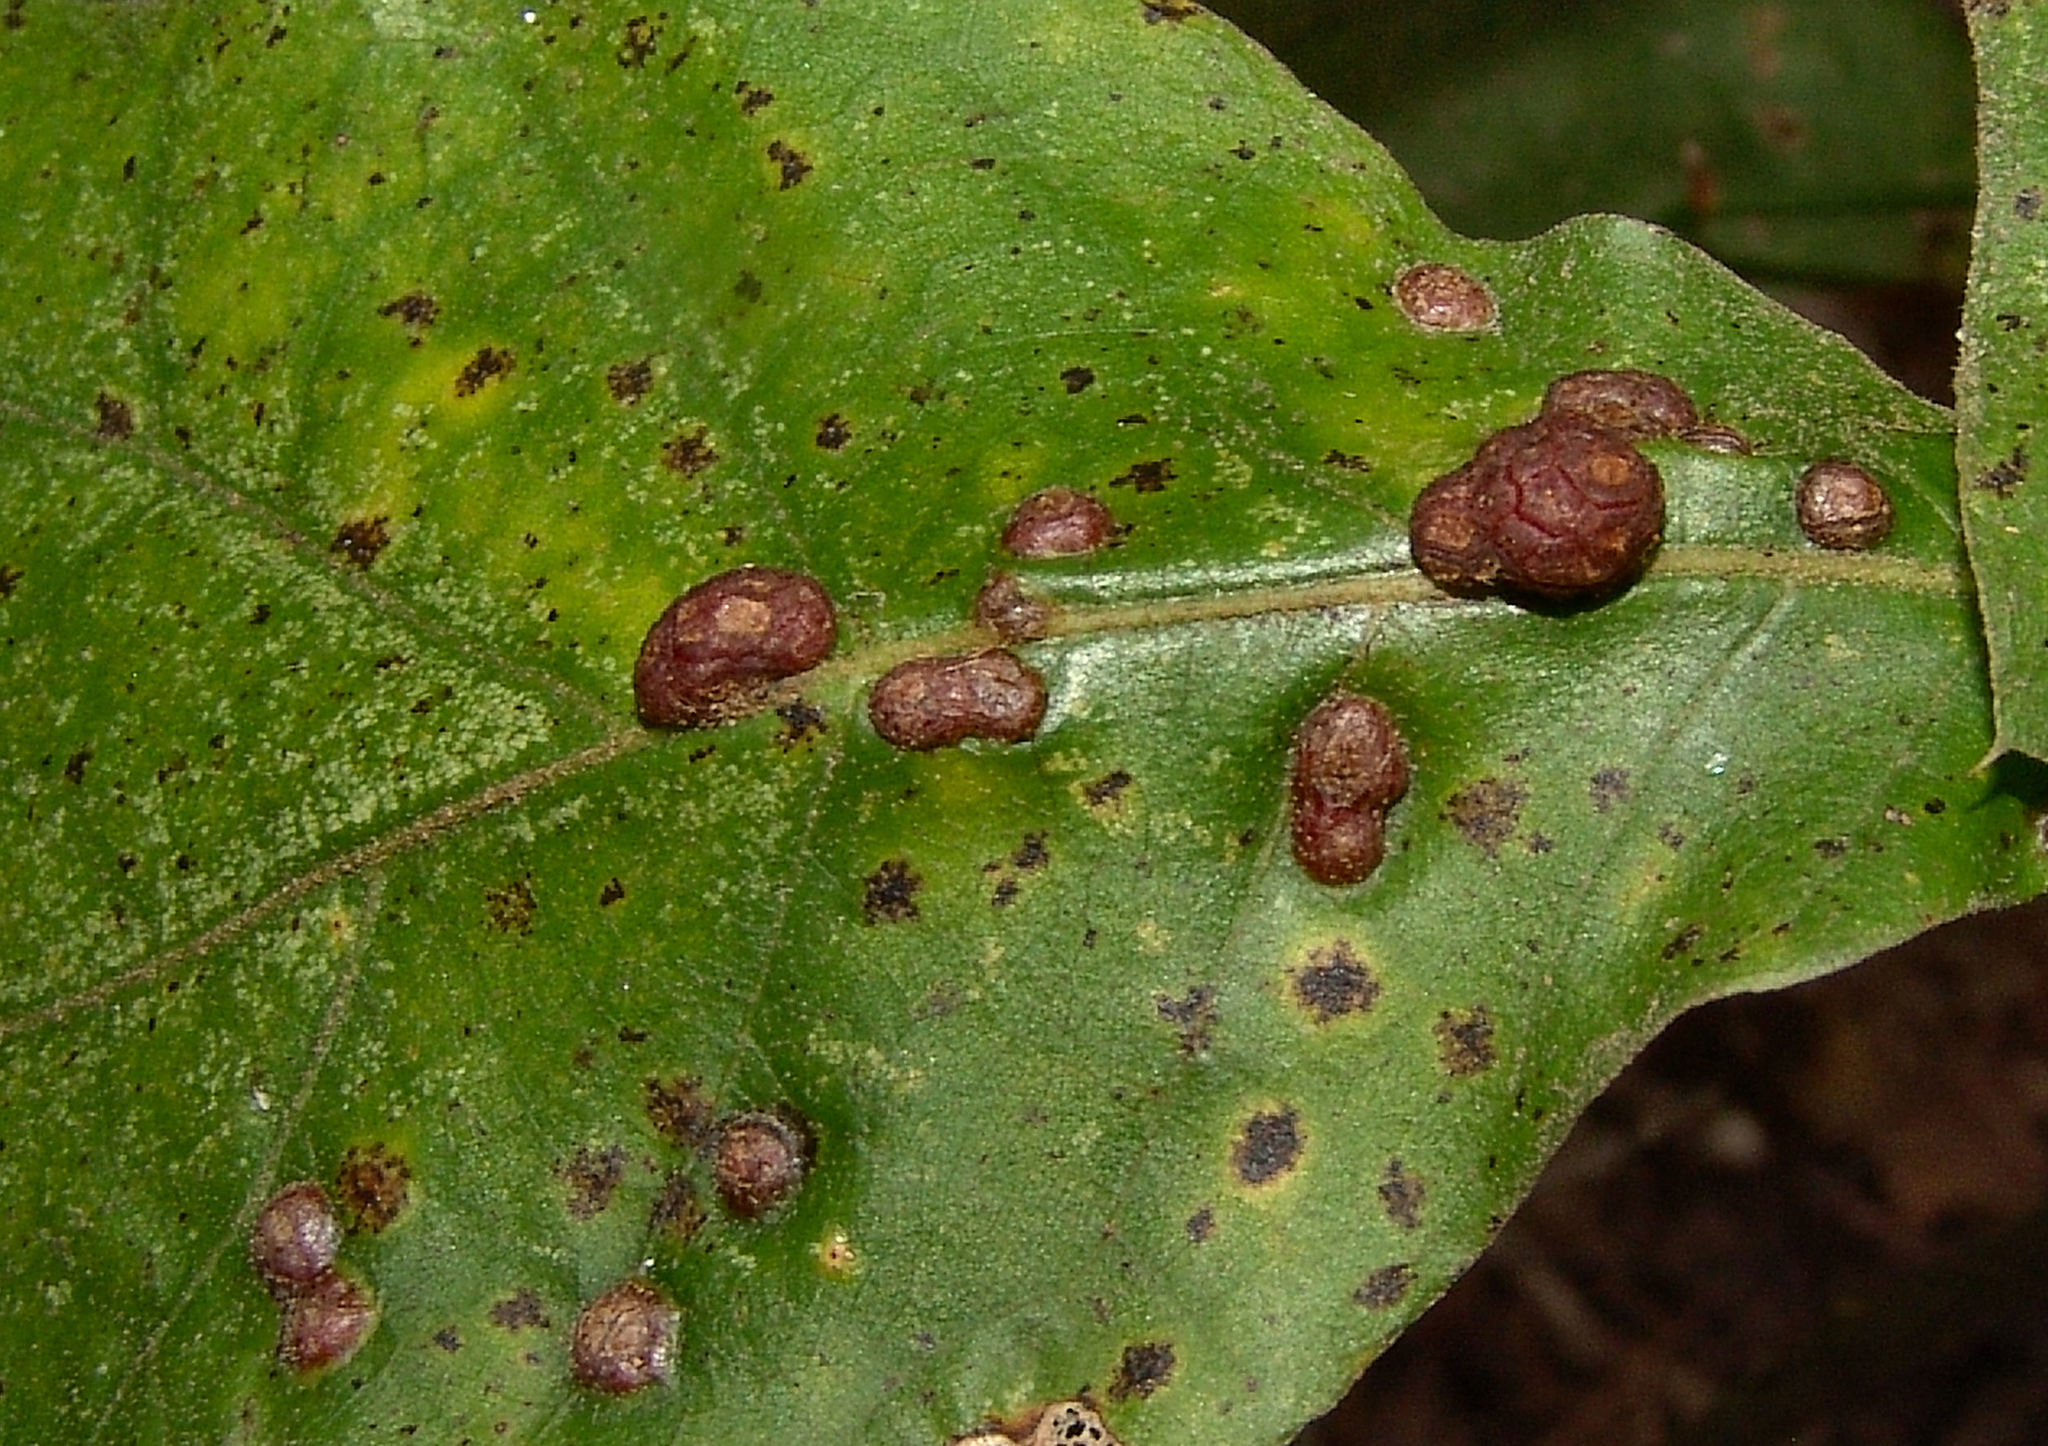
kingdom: Animalia
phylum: Arthropoda
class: Insecta
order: Diptera
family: Cecidomyiidae
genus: Polystepha
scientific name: Polystepha pilulae
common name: Oak leaf gall midge
